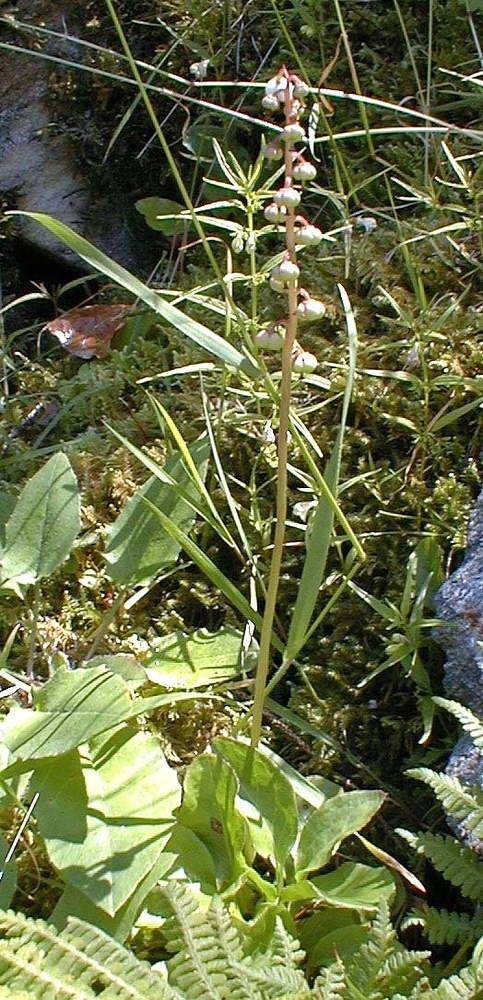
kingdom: Plantae
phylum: Tracheophyta
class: Magnoliopsida
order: Ericales
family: Ericaceae
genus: Pyrola
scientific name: Pyrola minor
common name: Common wintergreen
